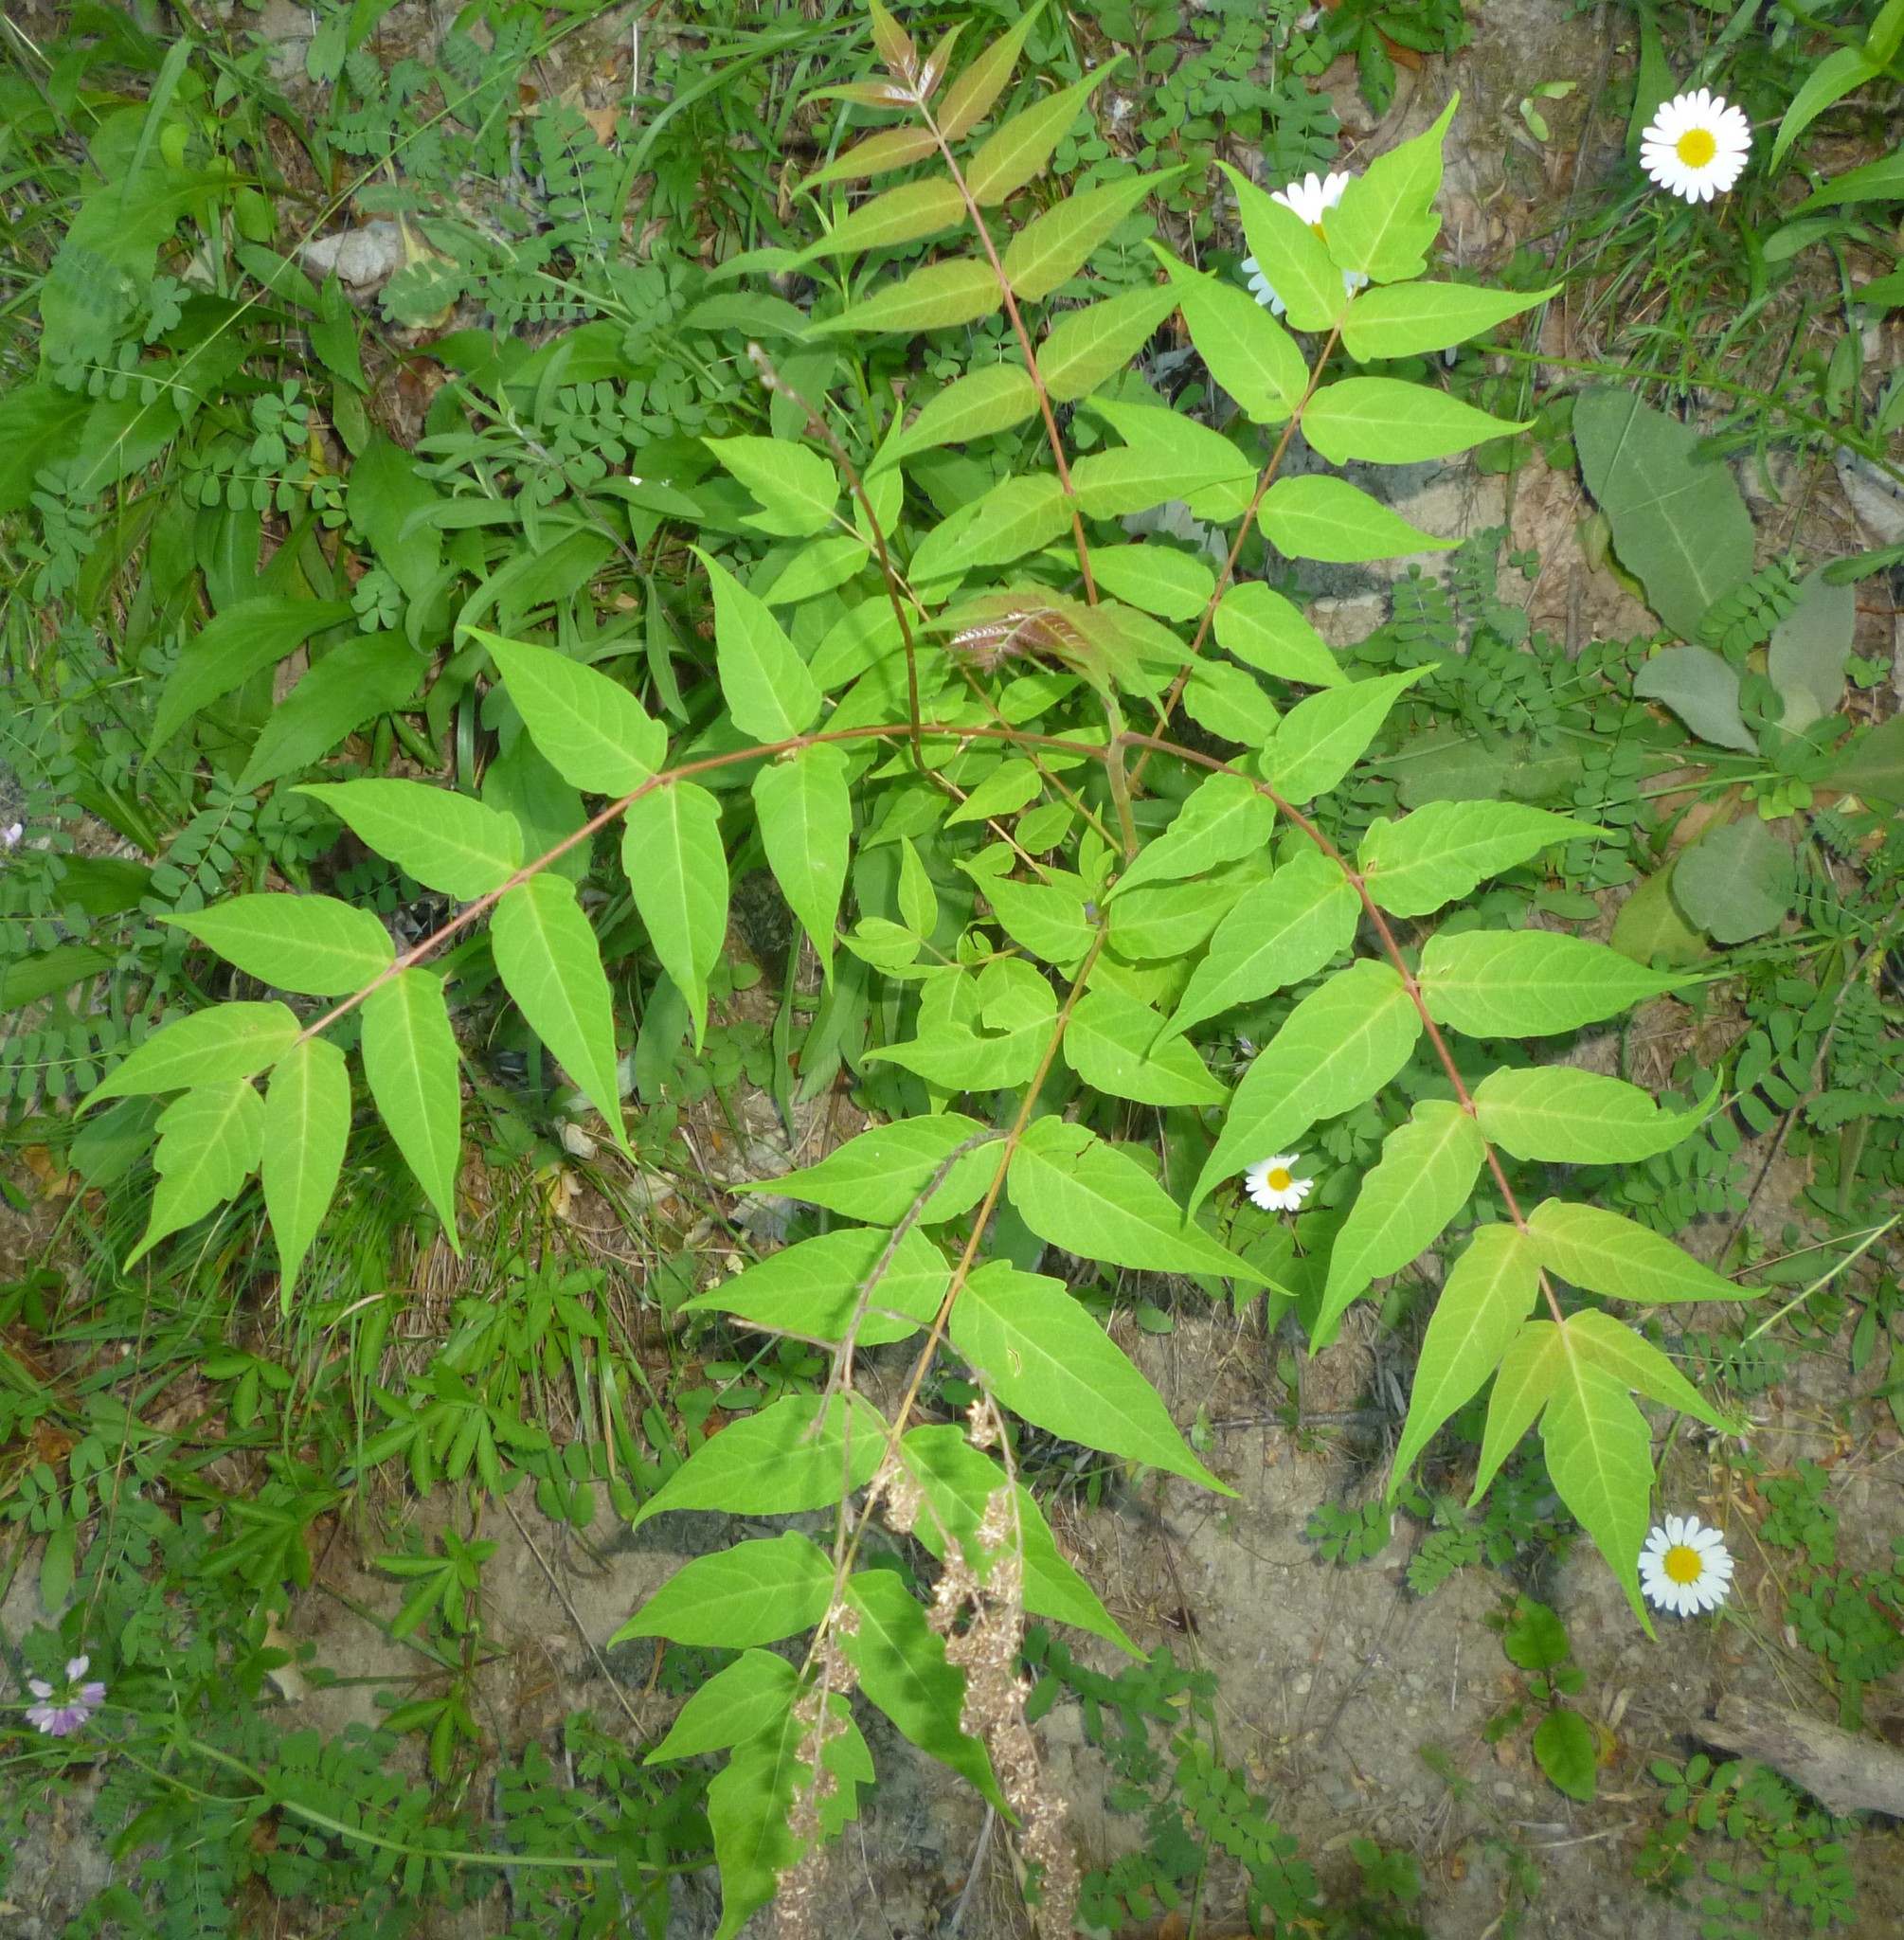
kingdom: Plantae
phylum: Tracheophyta
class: Magnoliopsida
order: Sapindales
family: Simaroubaceae
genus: Ailanthus
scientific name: Ailanthus altissima
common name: Tree-of-heaven
